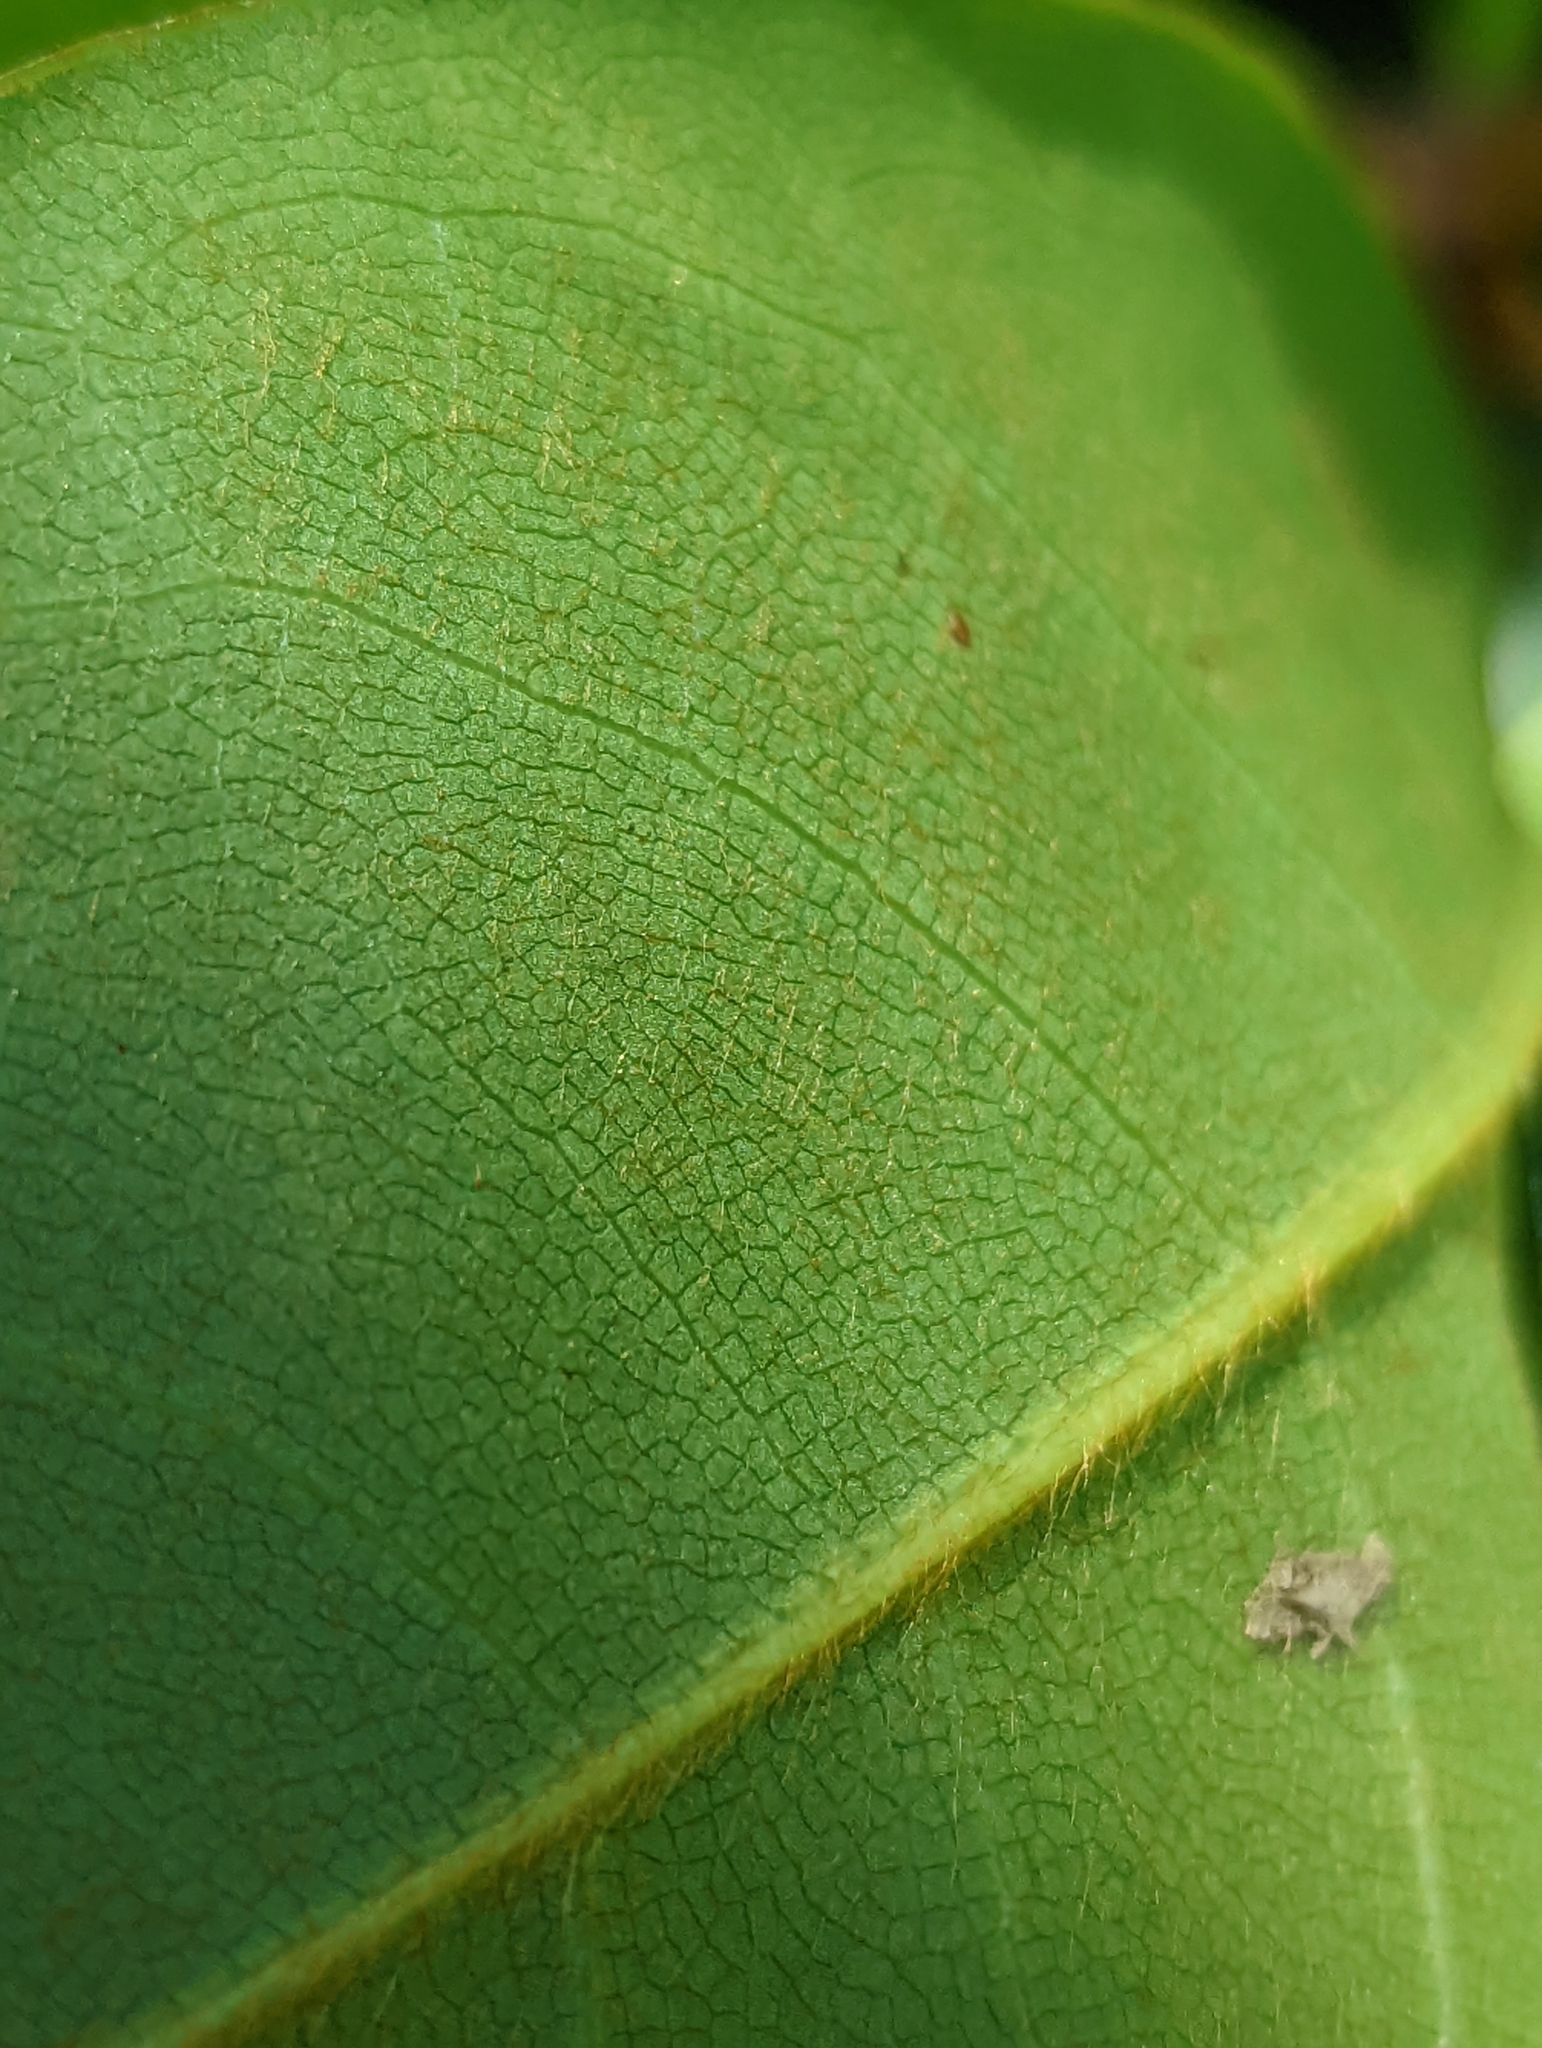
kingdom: Plantae
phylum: Tracheophyta
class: Magnoliopsida
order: Magnoliales
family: Magnoliaceae
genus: Magnolia
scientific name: Magnolia grandiflora
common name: Southern magnolia
